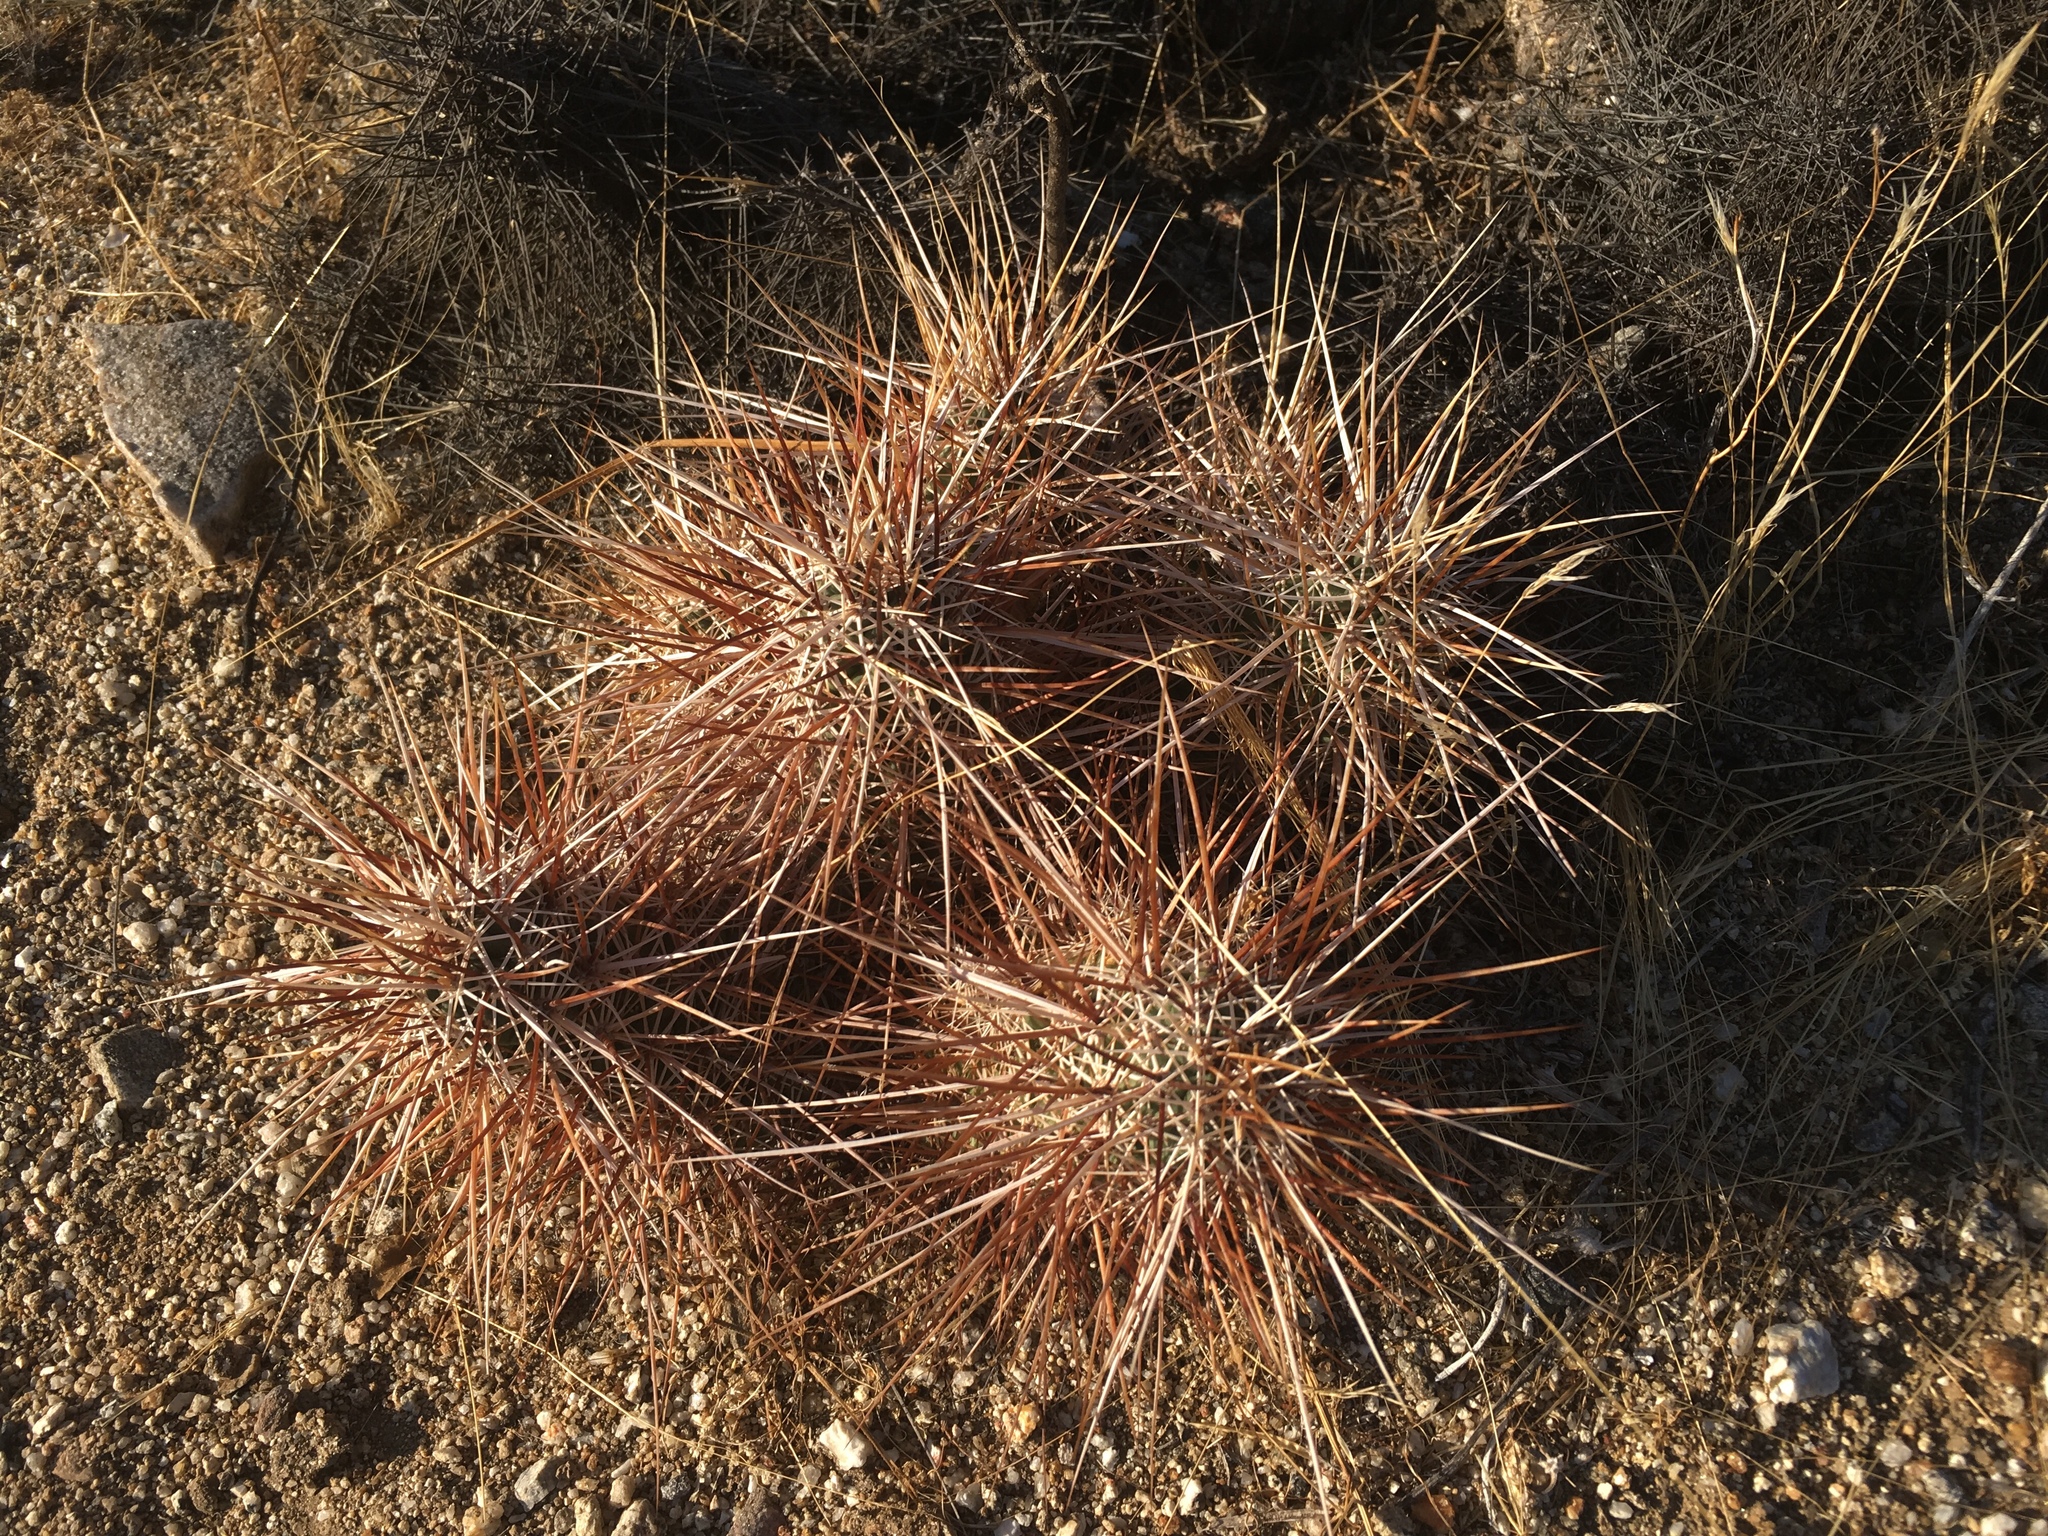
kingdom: Plantae
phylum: Tracheophyta
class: Magnoliopsida
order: Caryophyllales
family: Cactaceae
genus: Echinocereus
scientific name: Echinocereus engelmannii
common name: Engelmann's hedgehog cactus
